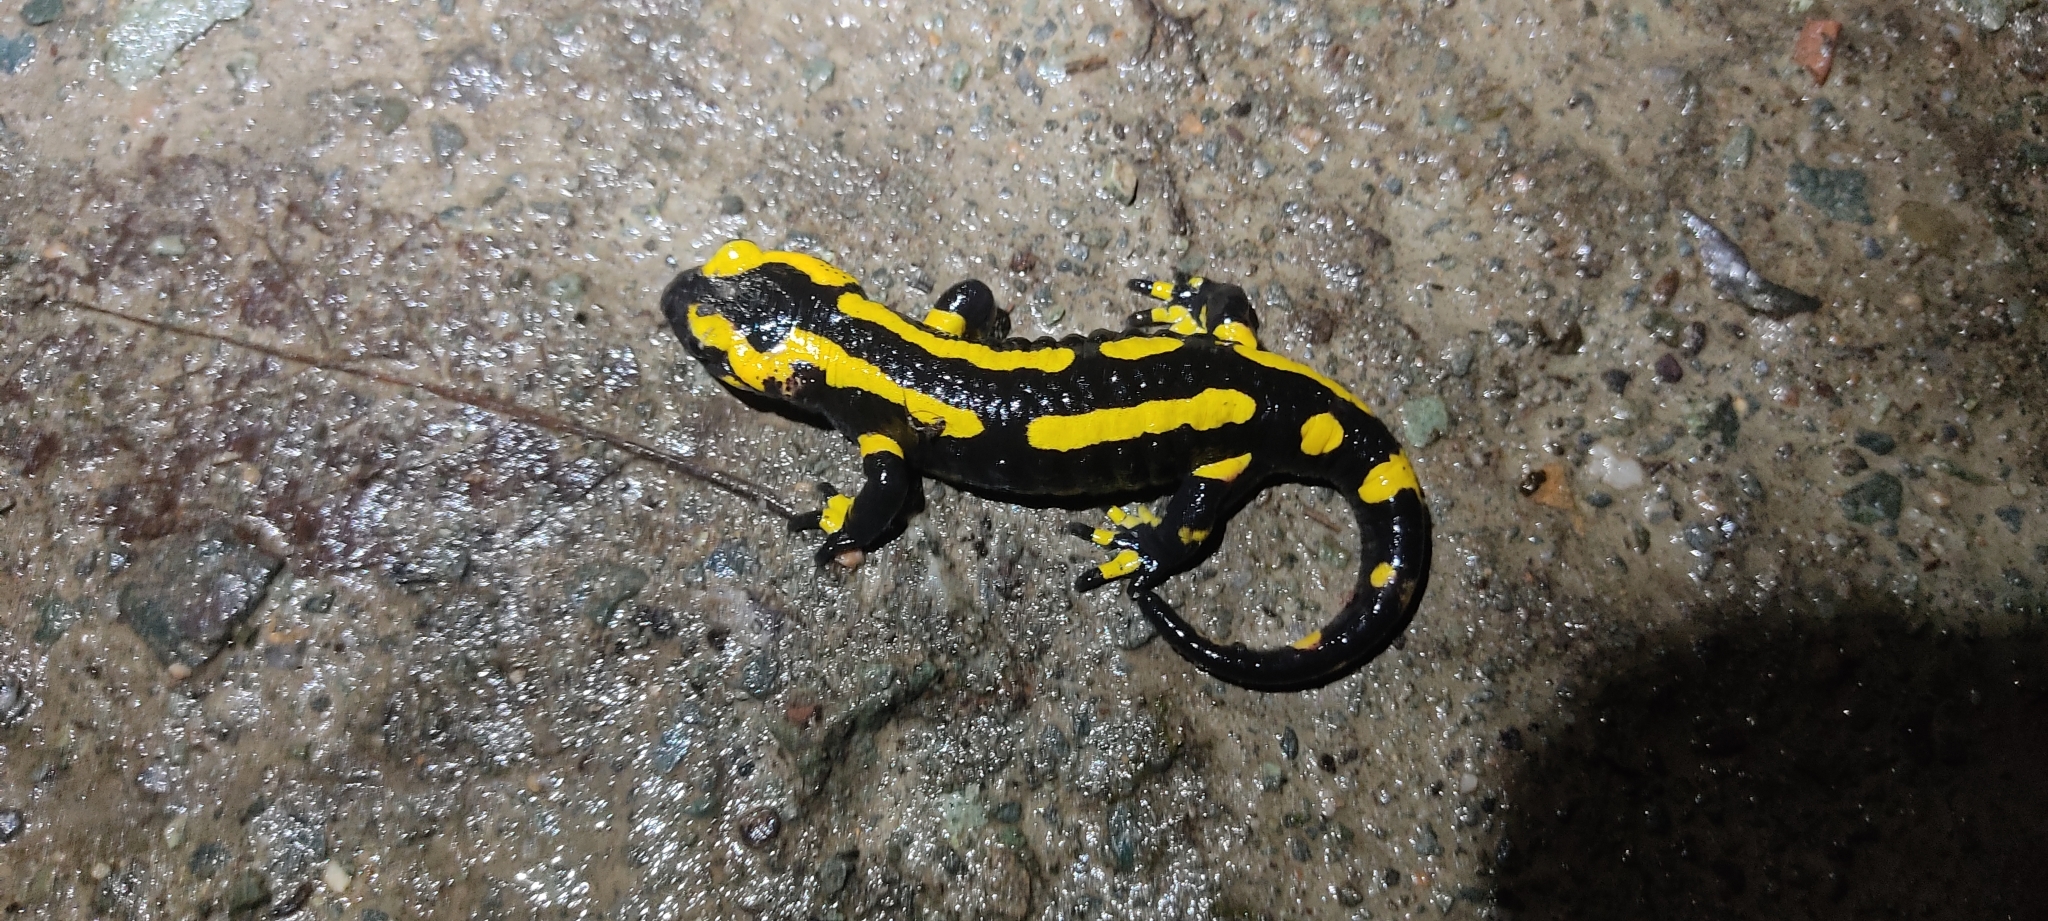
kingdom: Animalia
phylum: Chordata
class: Amphibia
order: Caudata
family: Salamandridae
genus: Salamandra
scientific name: Salamandra salamandra
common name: Fire salamander
